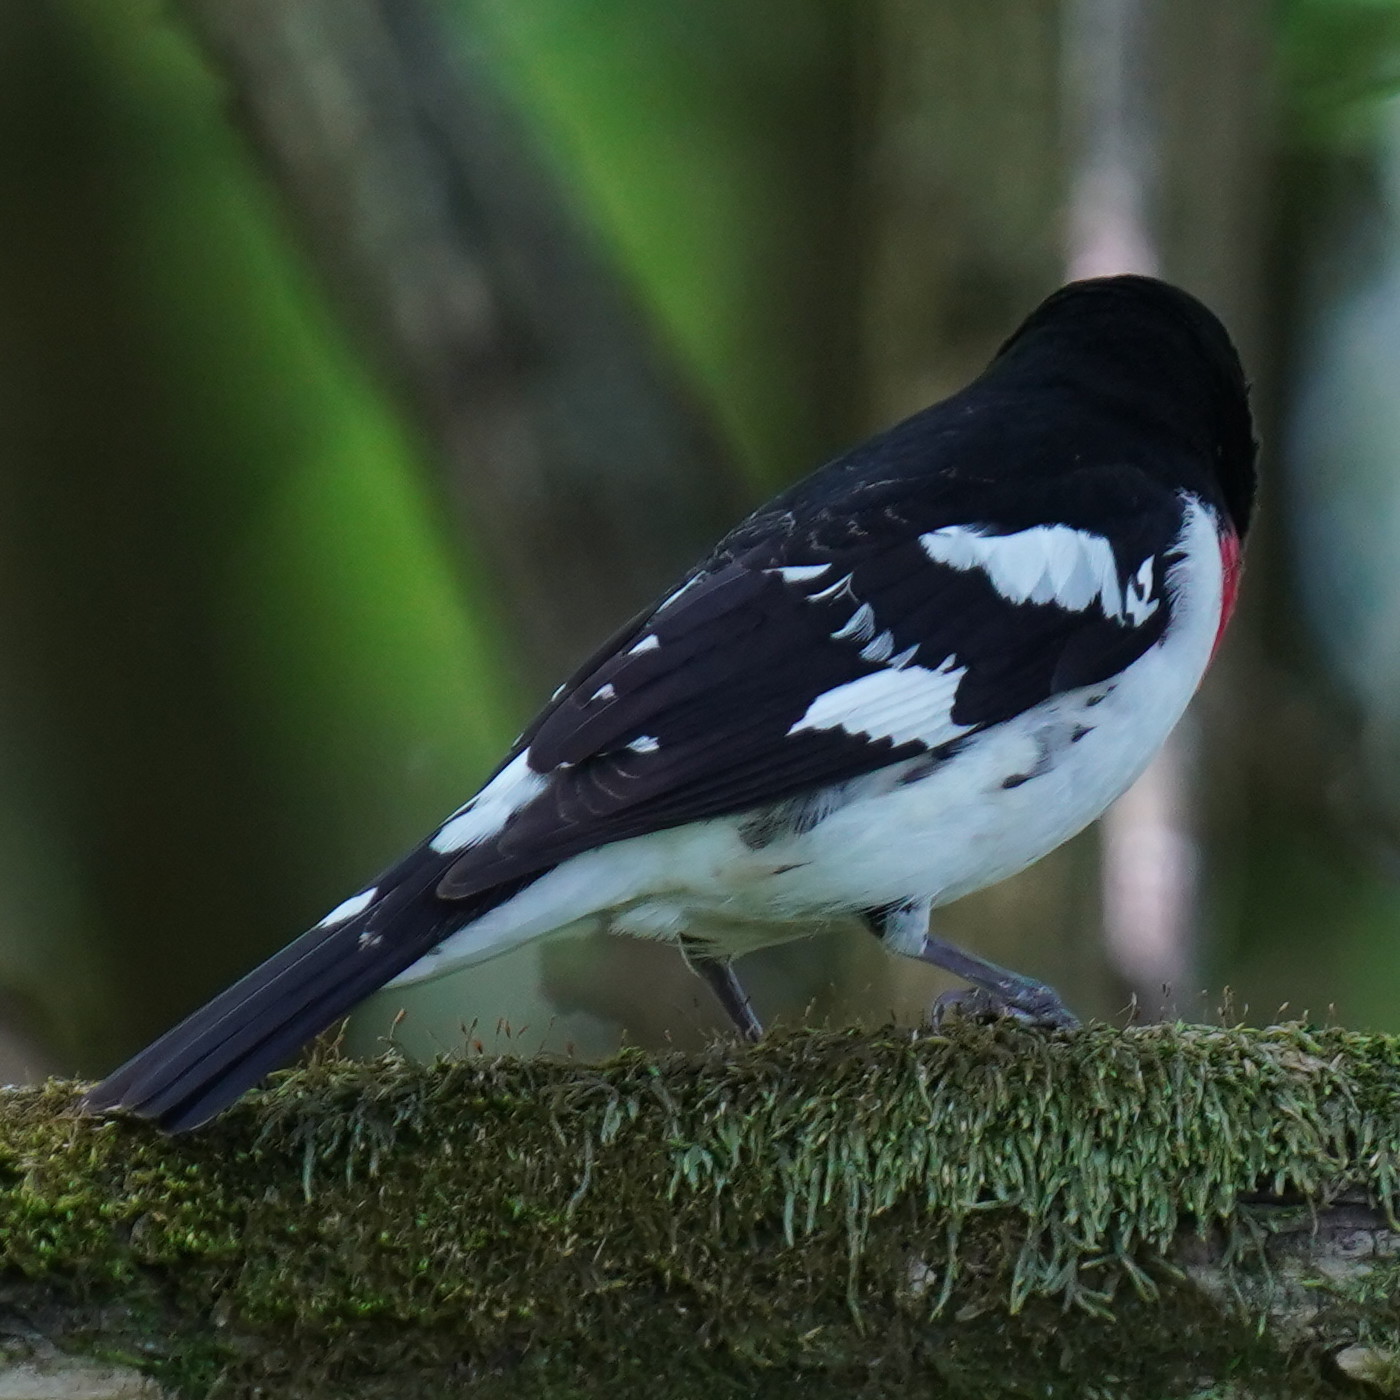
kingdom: Animalia
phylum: Chordata
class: Aves
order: Passeriformes
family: Cardinalidae
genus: Pheucticus
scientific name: Pheucticus ludovicianus
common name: Rose-breasted grosbeak
